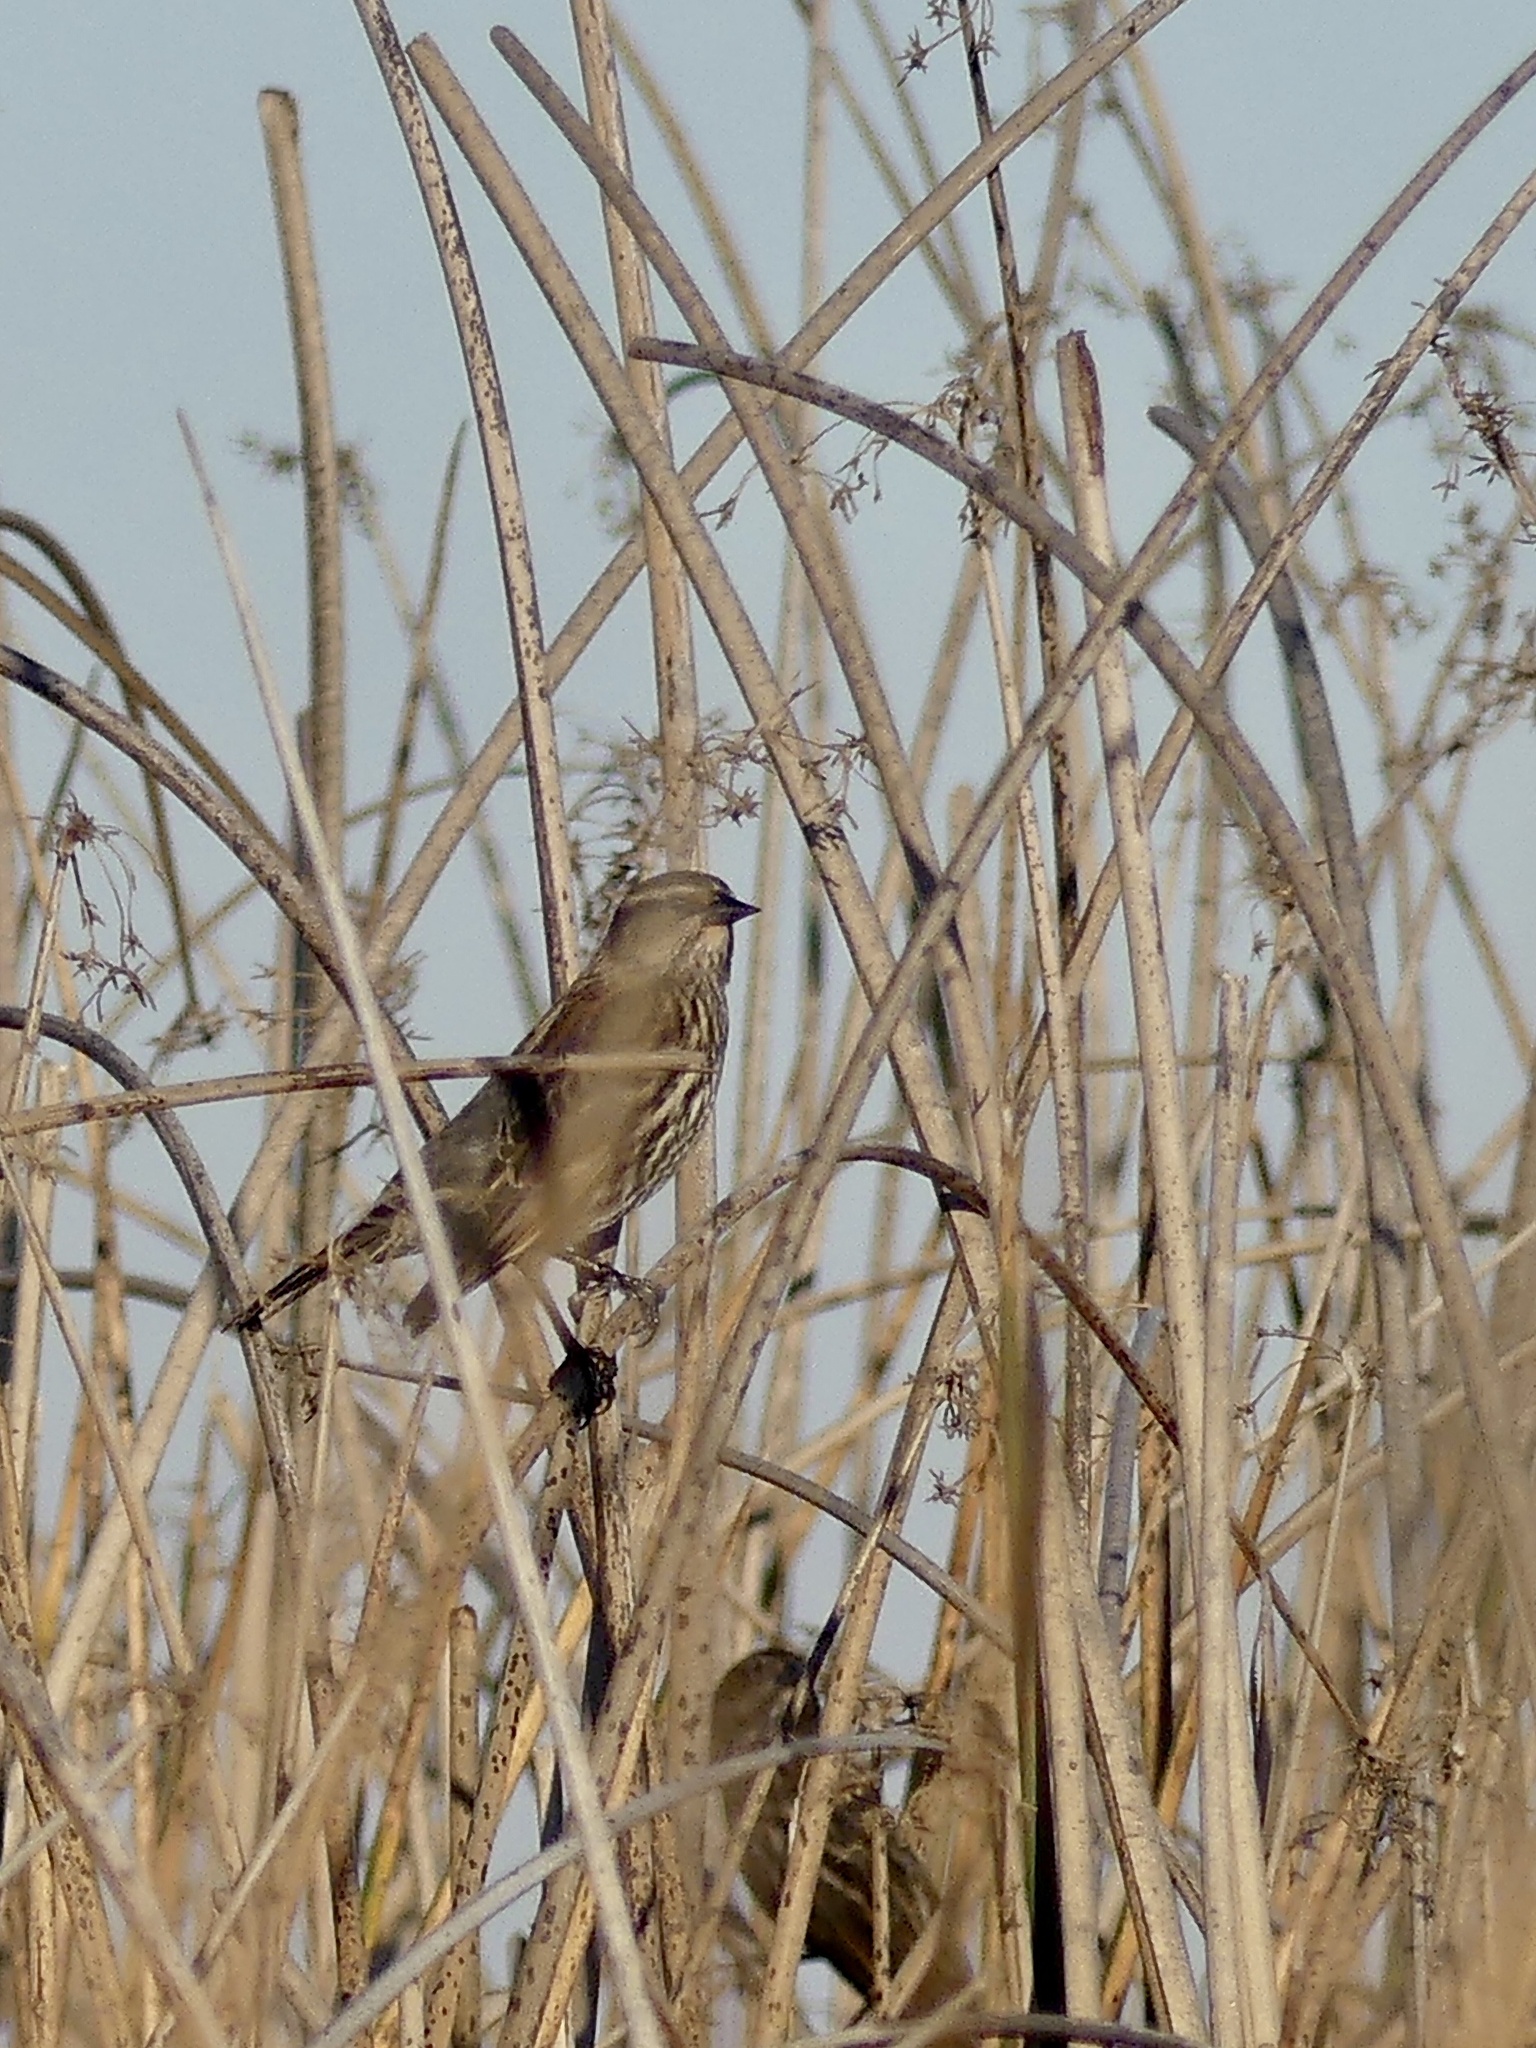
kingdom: Animalia
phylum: Chordata
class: Aves
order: Passeriformes
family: Icteridae
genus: Agelaius
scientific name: Agelaius phoeniceus
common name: Red-winged blackbird
